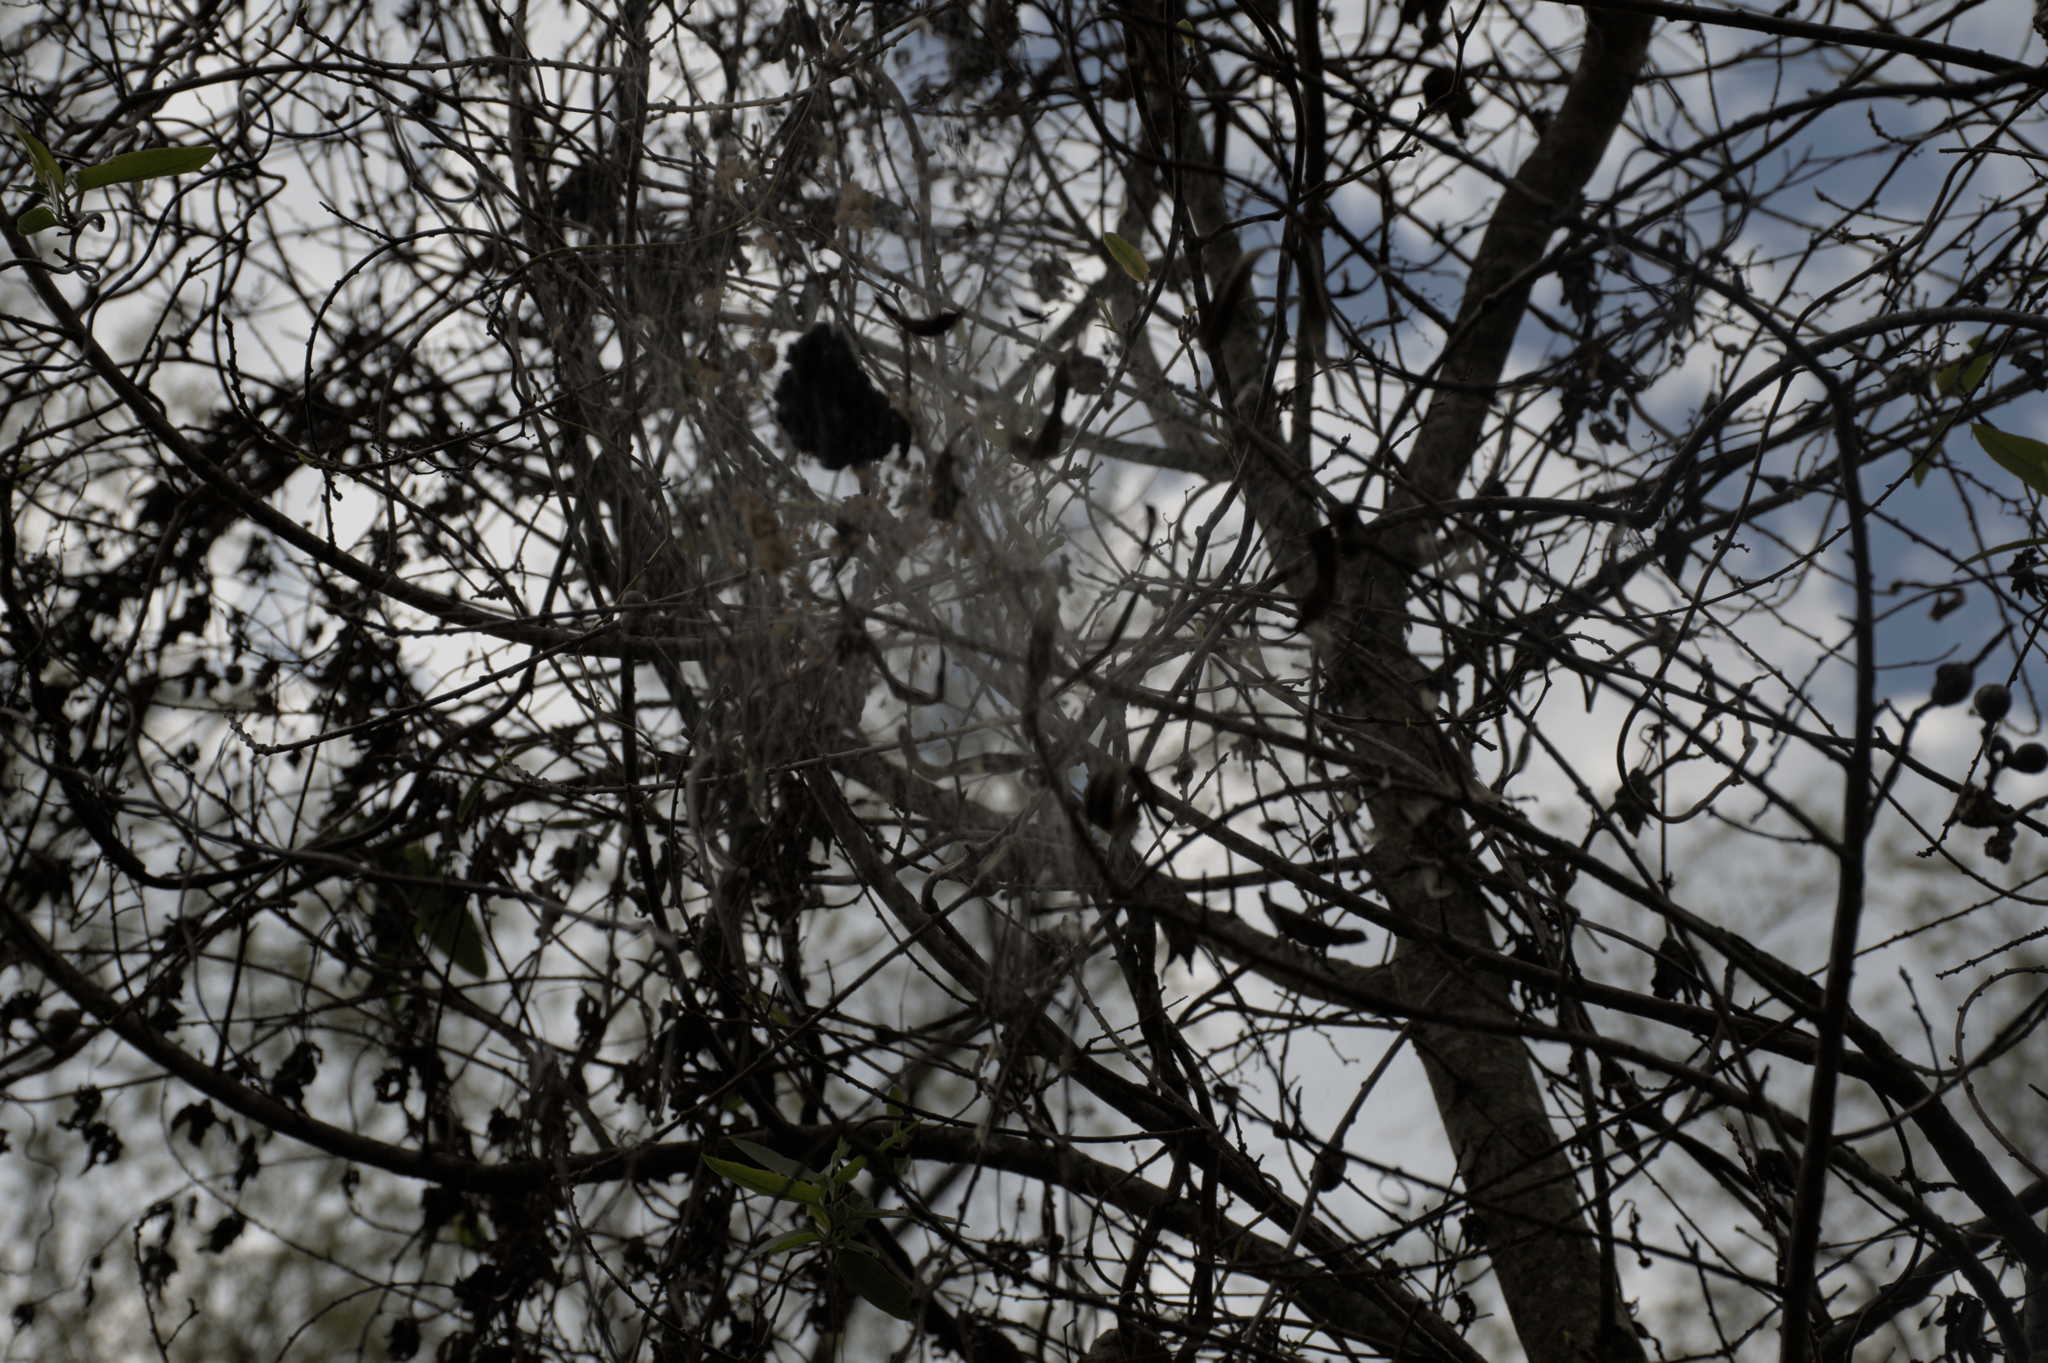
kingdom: Animalia
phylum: Arthropoda
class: Arachnida
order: Araneae
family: Araneidae
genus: Parawixia
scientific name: Parawixia bistriata
